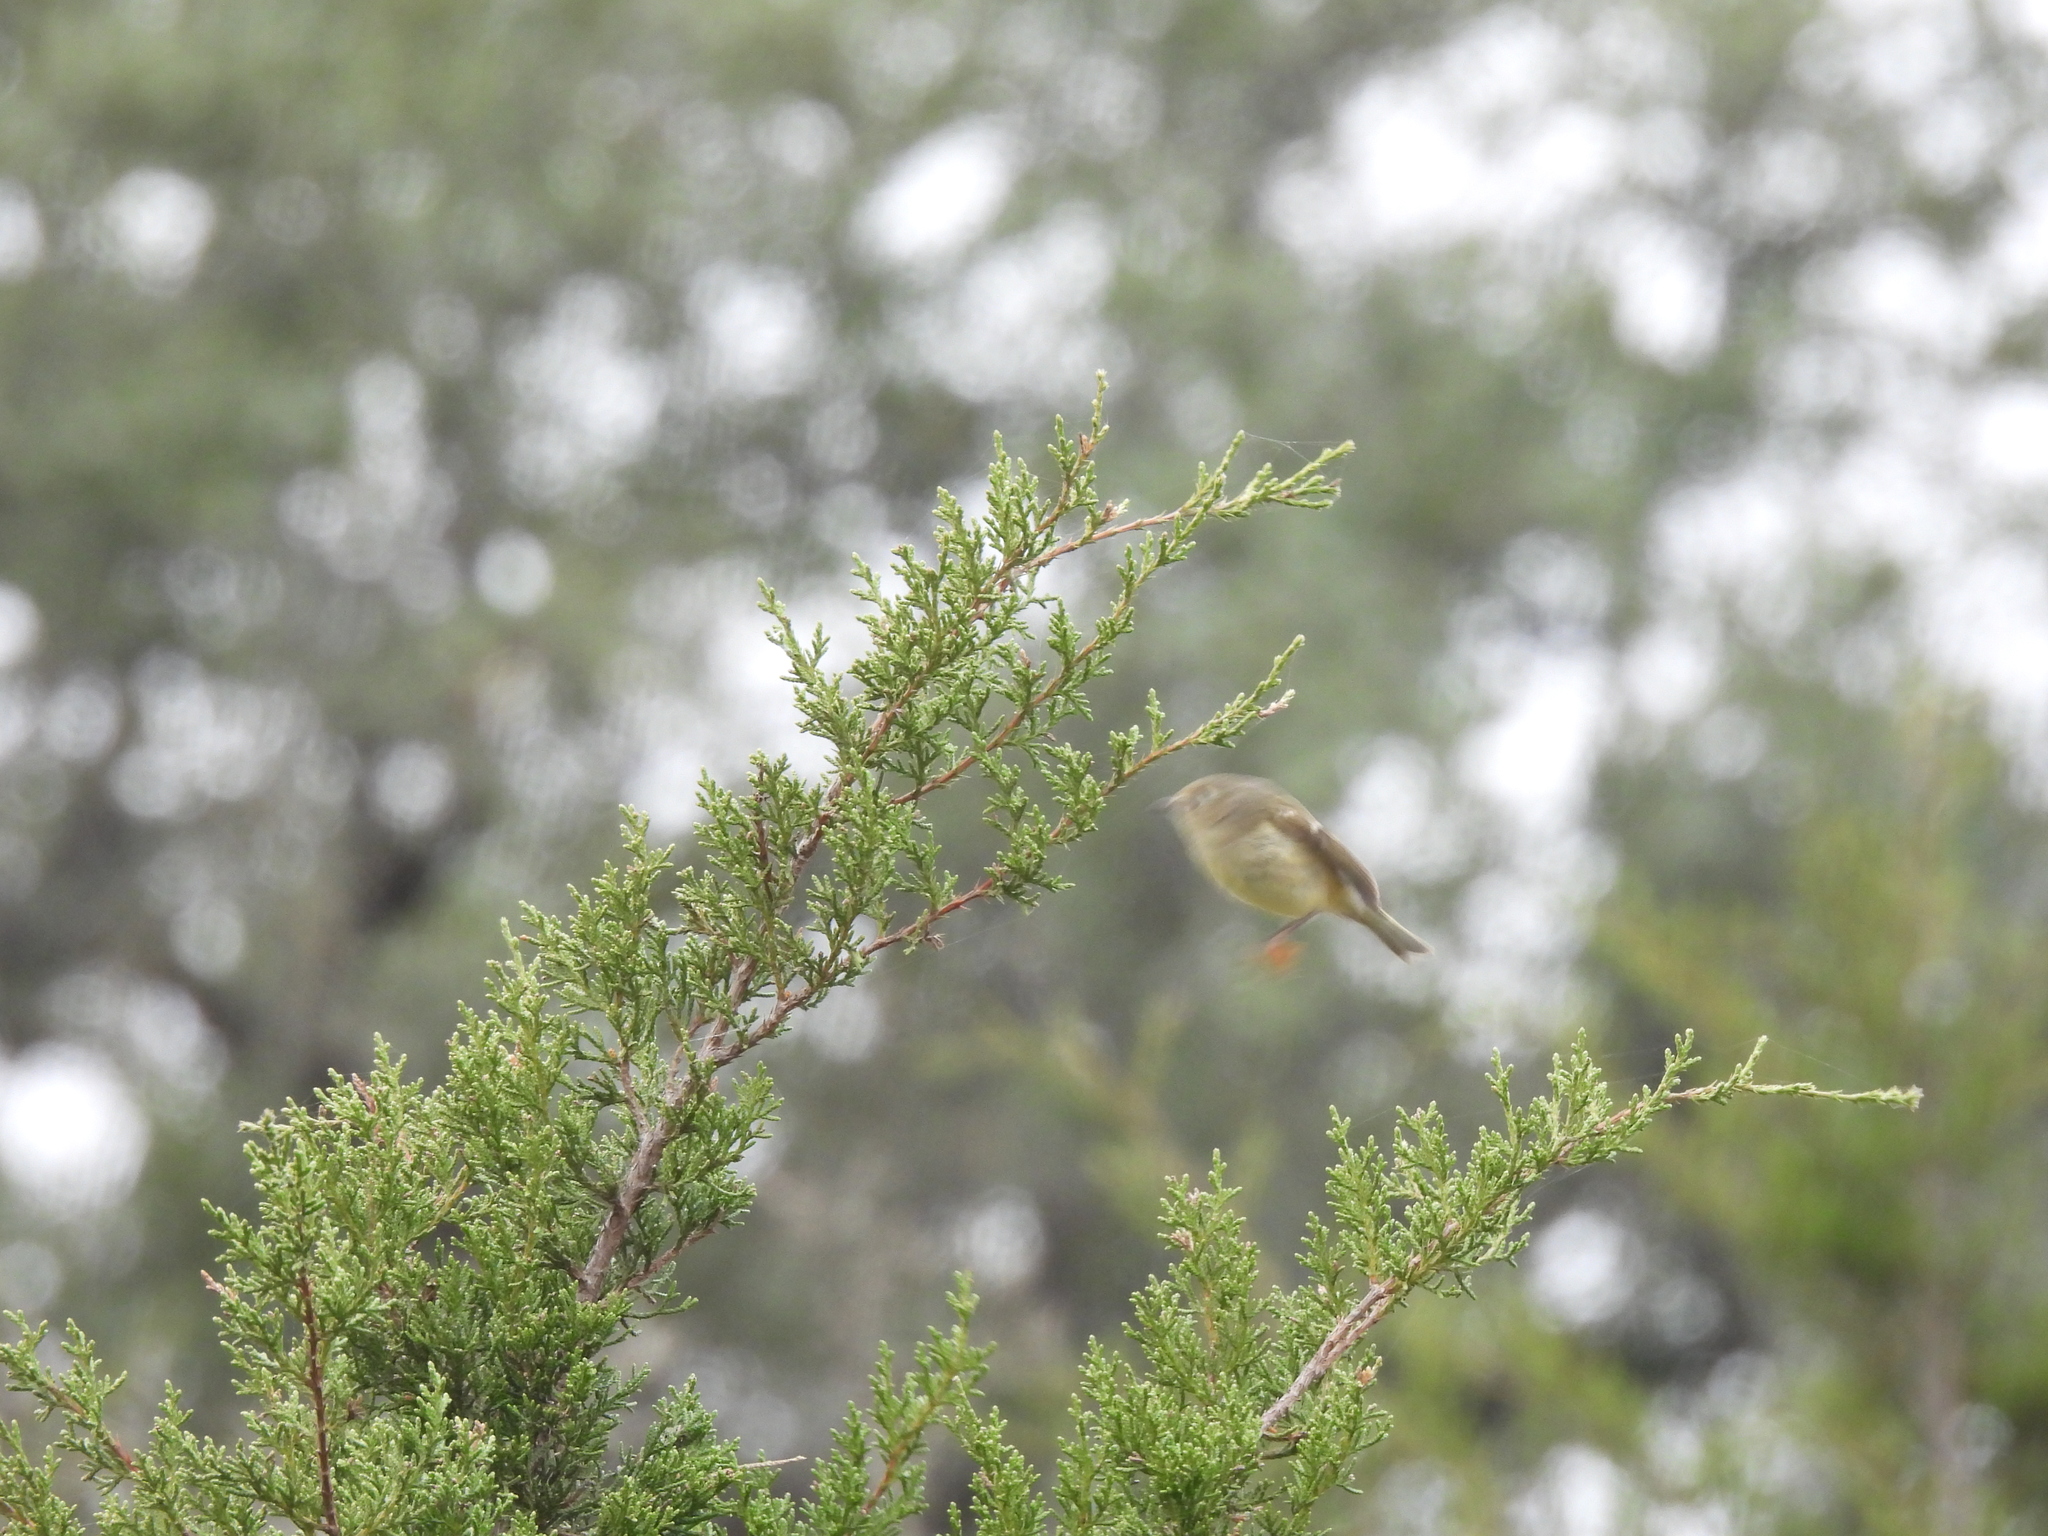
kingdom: Animalia
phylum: Chordata
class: Aves
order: Passeriformes
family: Regulidae
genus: Regulus
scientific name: Regulus calendula
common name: Ruby-crowned kinglet
